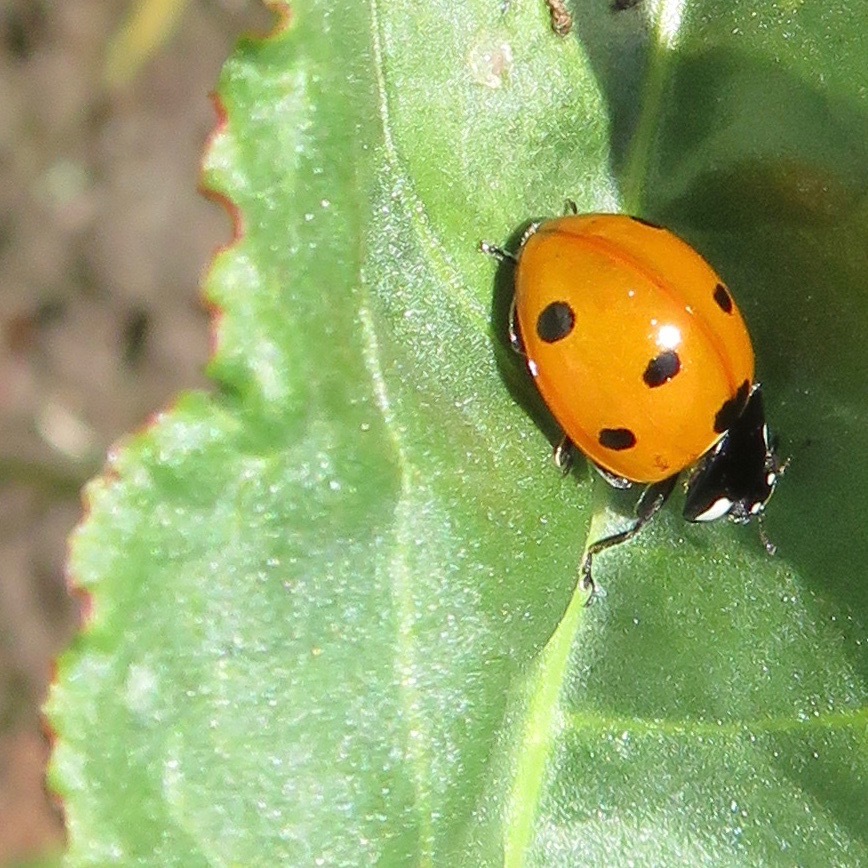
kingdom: Animalia
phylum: Arthropoda
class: Insecta
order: Coleoptera
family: Coccinellidae
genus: Coccinella
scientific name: Coccinella septempunctata
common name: Sevenspotted lady beetle
